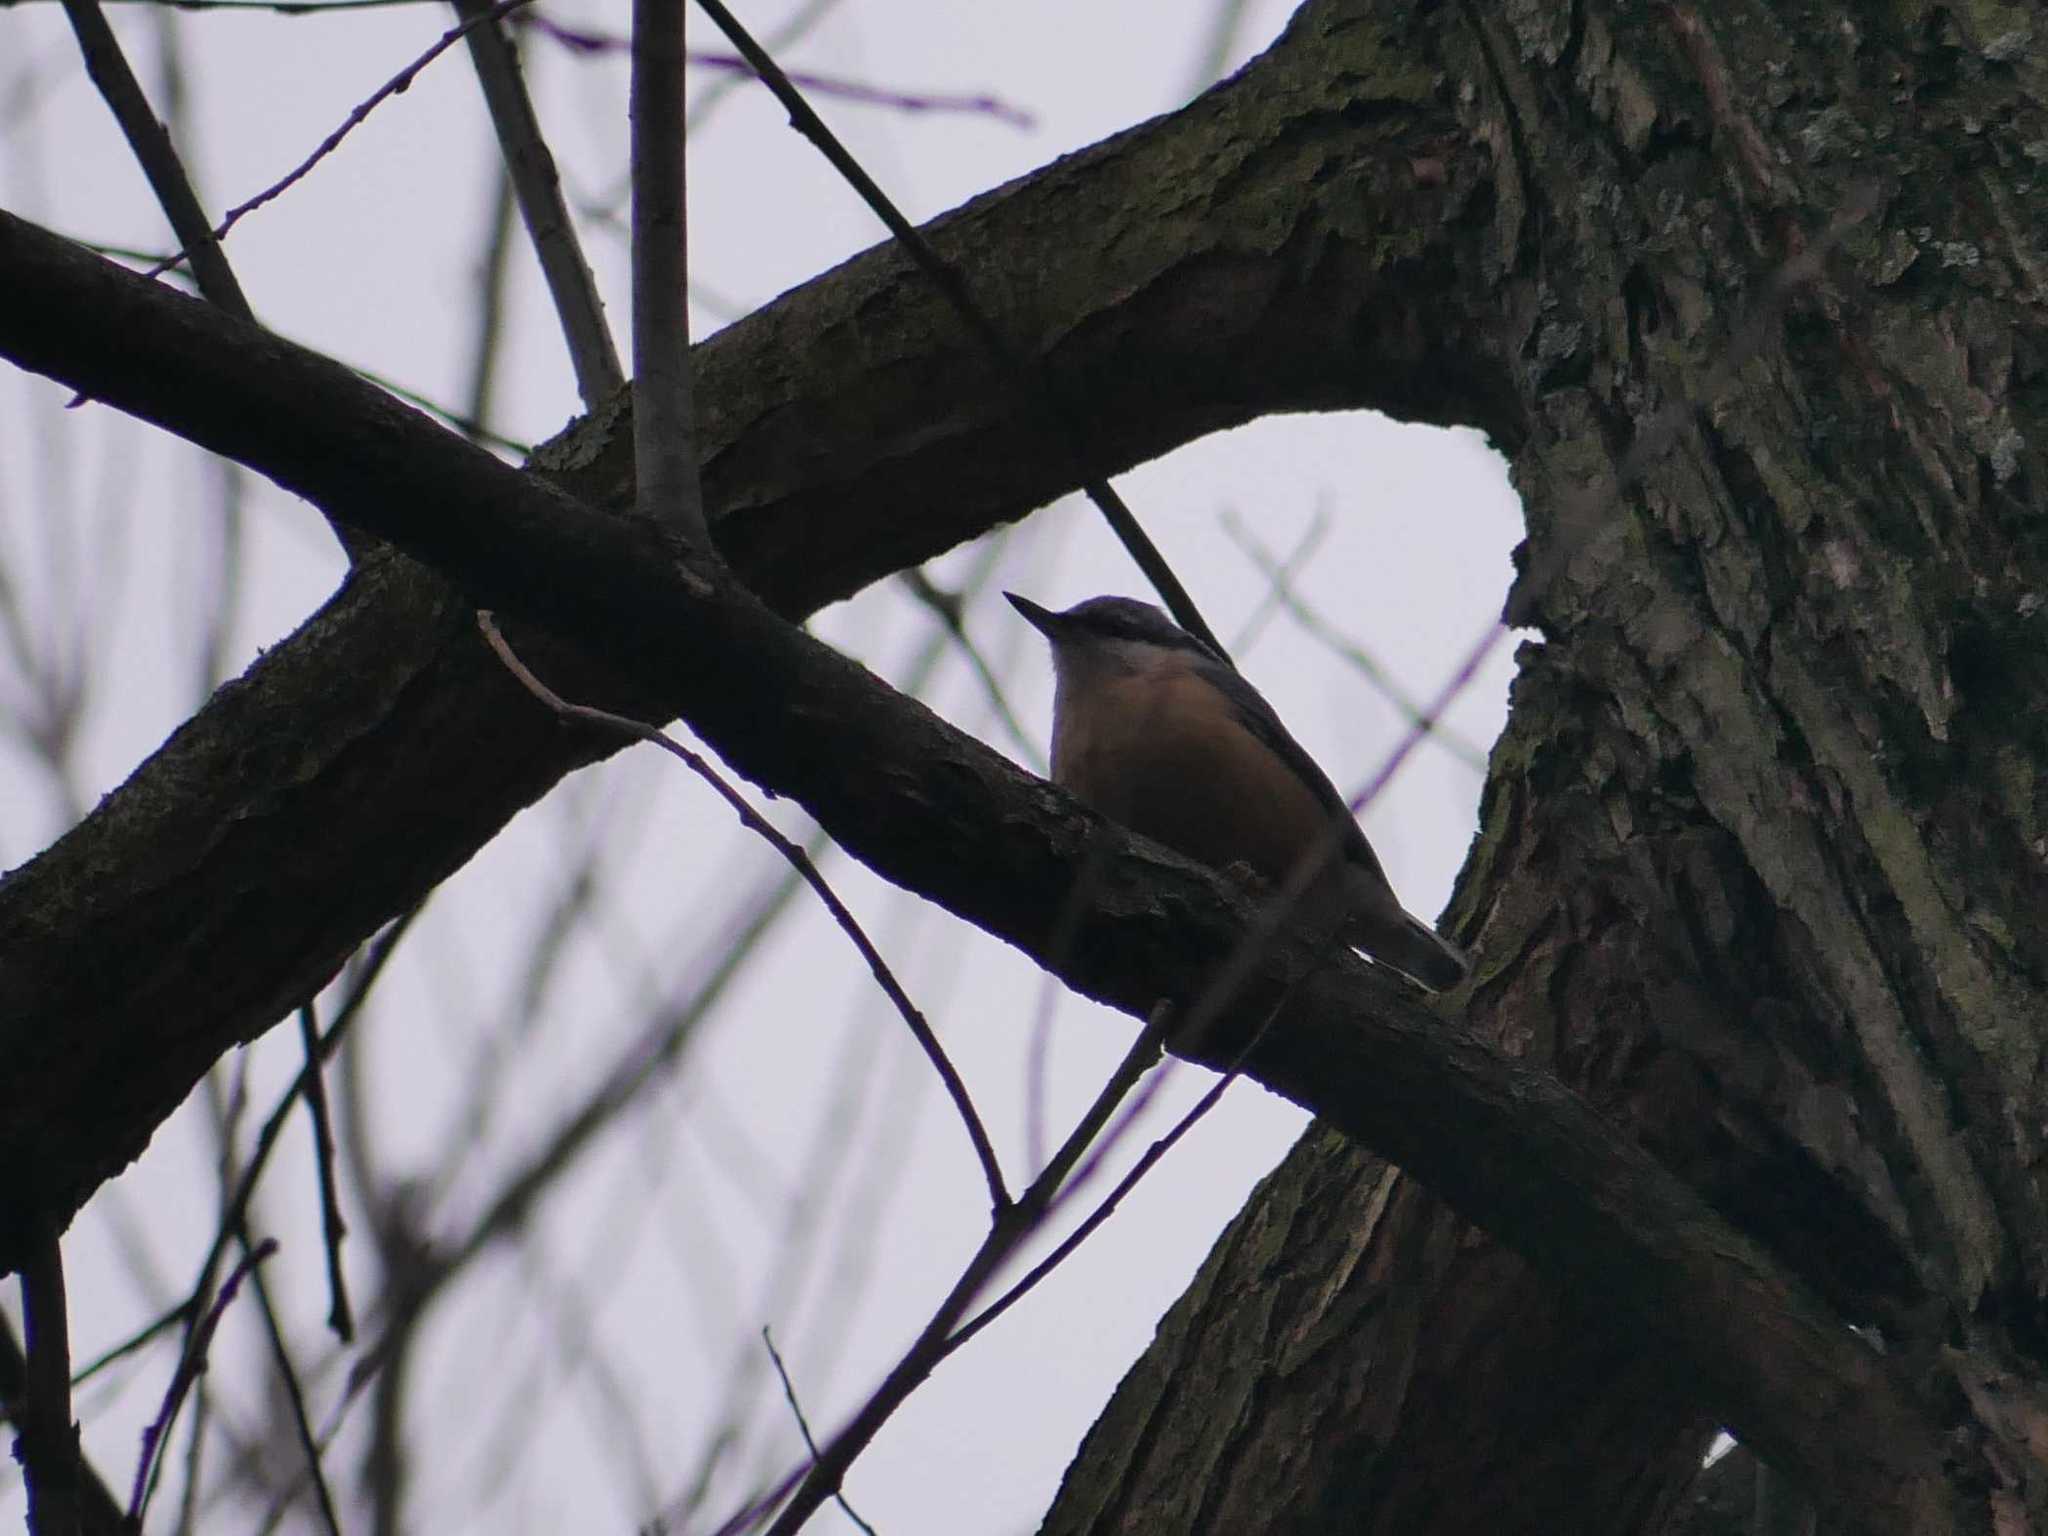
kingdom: Animalia
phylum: Chordata
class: Aves
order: Passeriformes
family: Sittidae
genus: Sitta
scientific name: Sitta europaea
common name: Eurasian nuthatch
